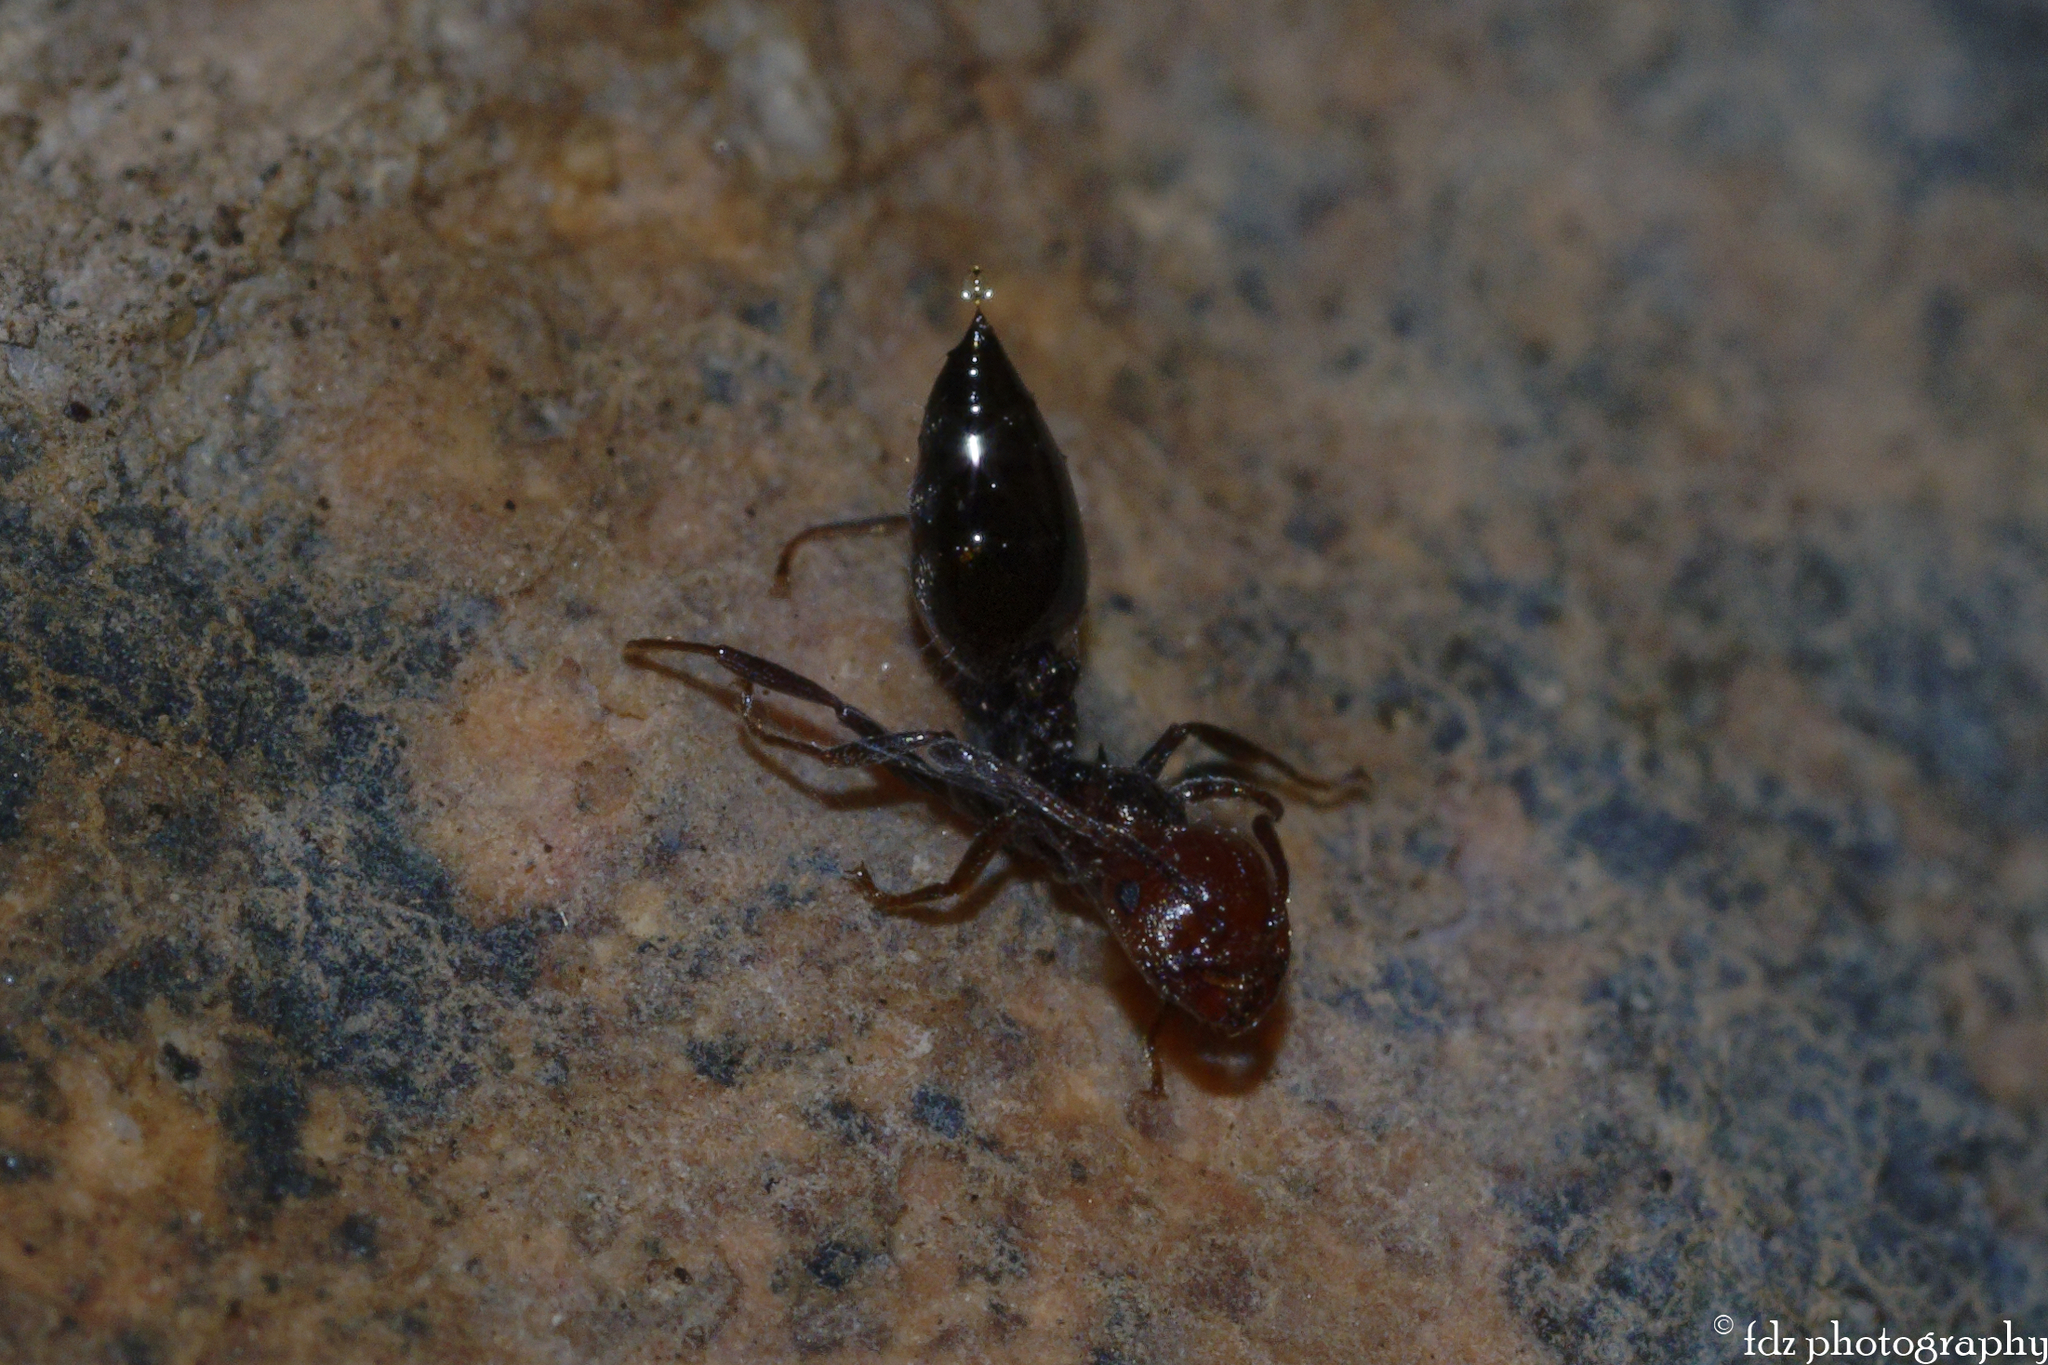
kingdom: Animalia
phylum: Arthropoda
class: Insecta
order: Hymenoptera
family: Formicidae
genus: Crematogaster
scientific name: Crematogaster scutellaris
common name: Fourmi du liège
